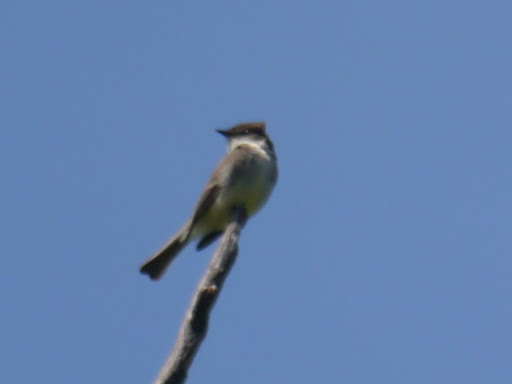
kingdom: Animalia
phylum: Chordata
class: Aves
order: Passeriformes
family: Tyrannidae
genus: Sayornis
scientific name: Sayornis phoebe
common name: Eastern phoebe
